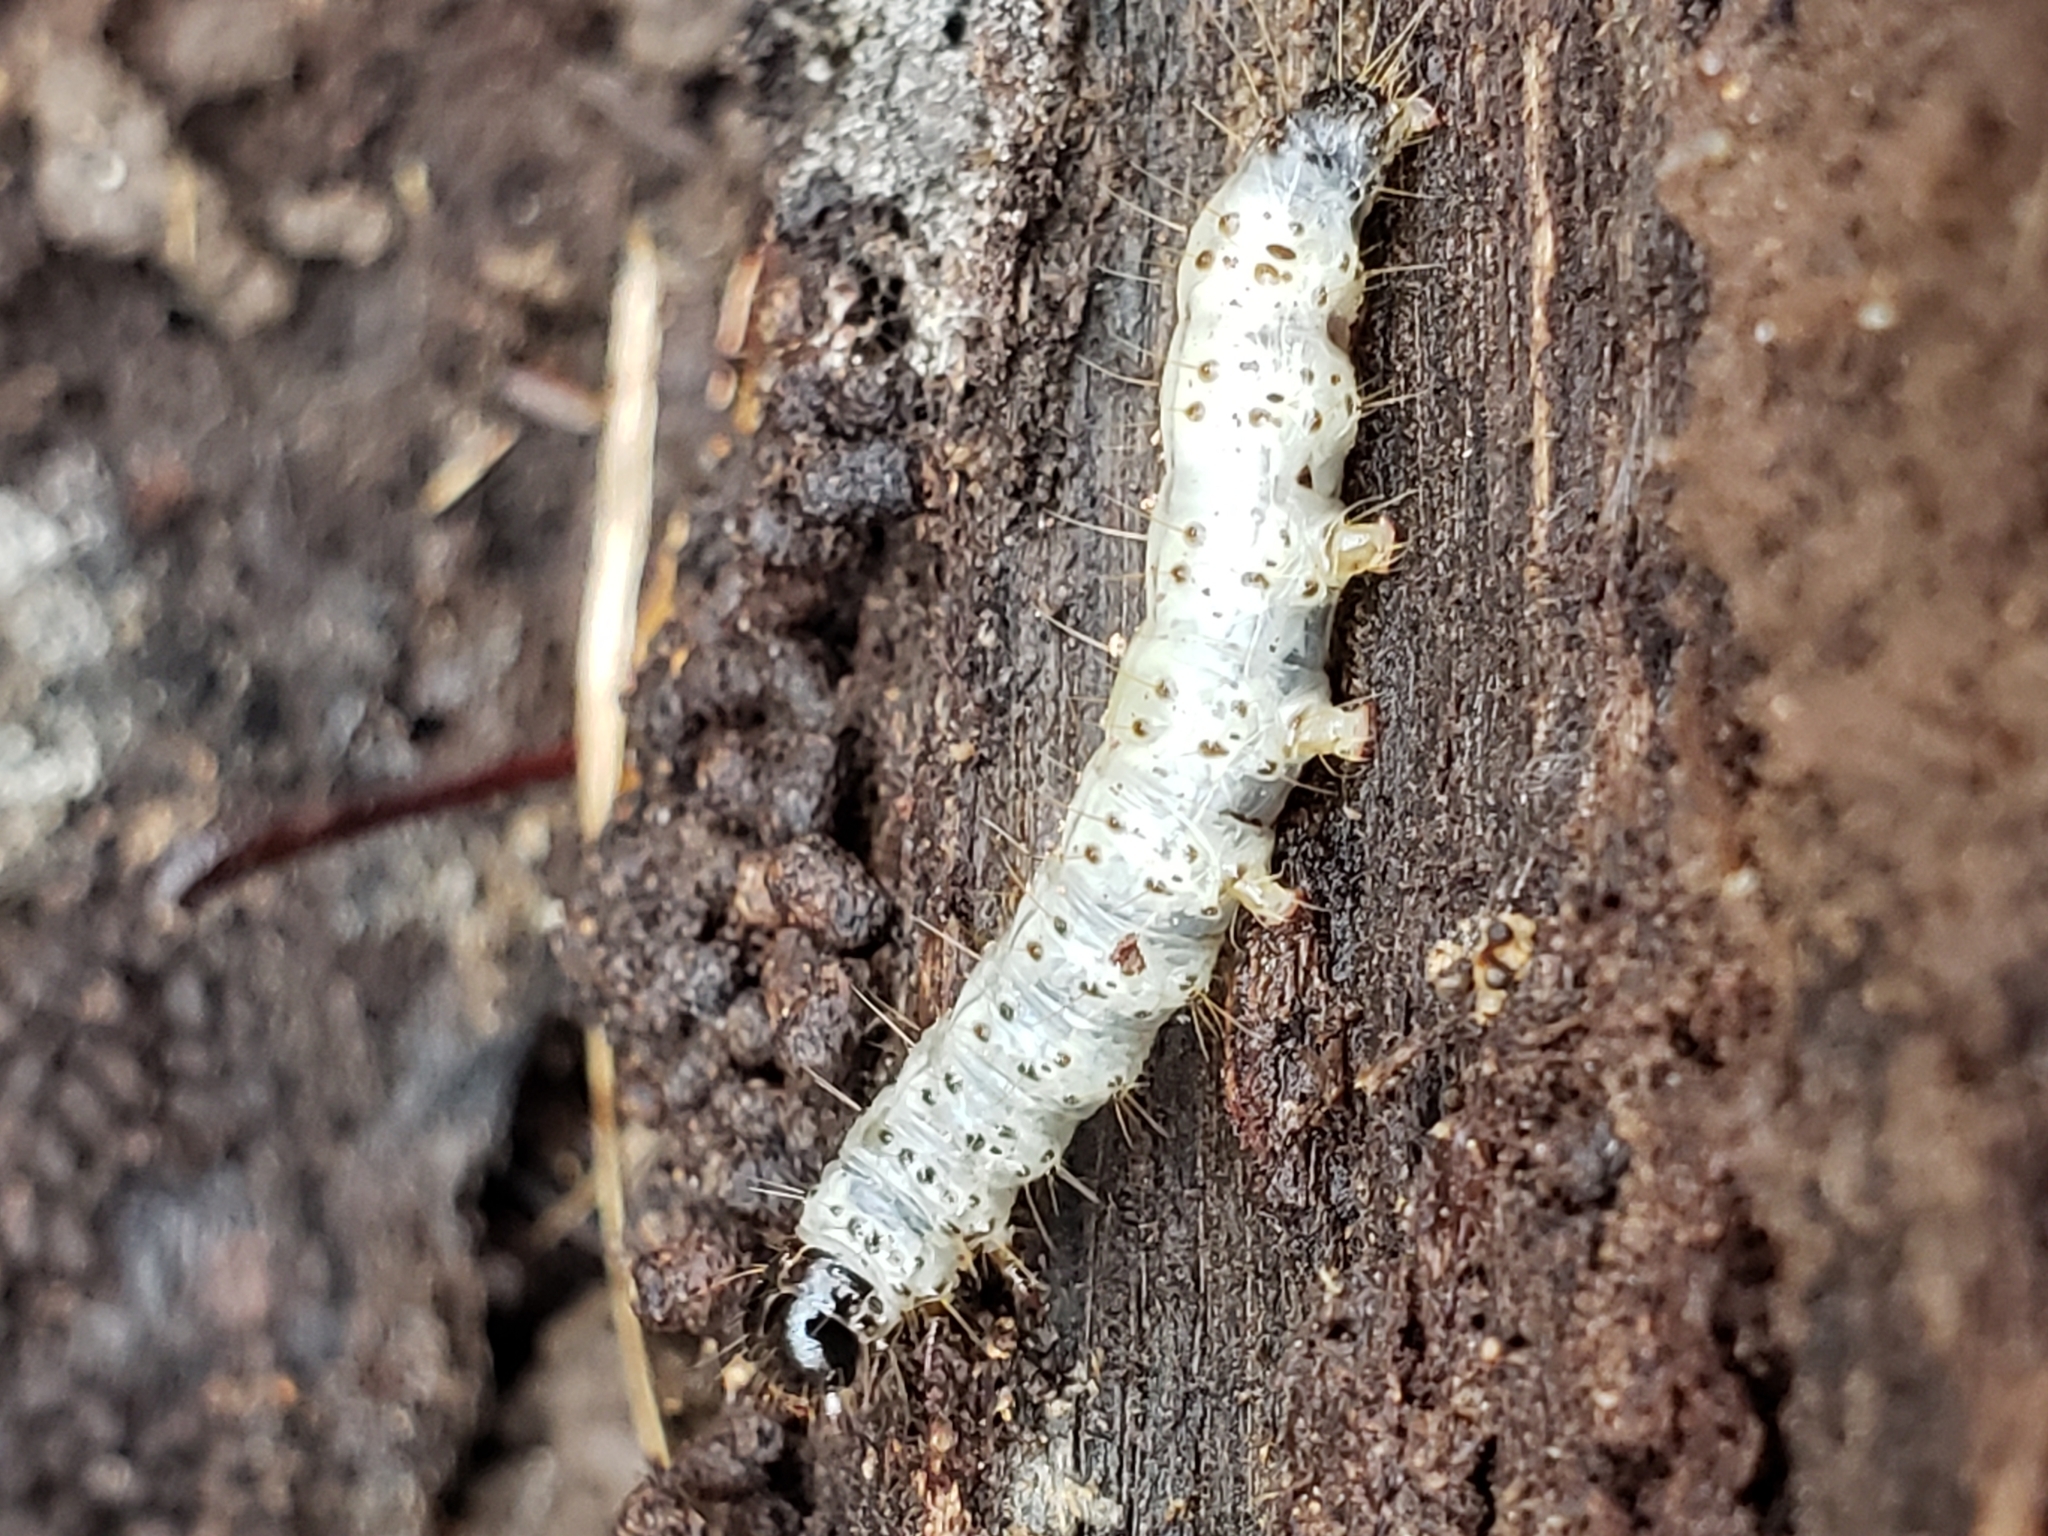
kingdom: Animalia
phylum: Arthropoda
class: Insecta
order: Lepidoptera
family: Erebidae
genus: Scolecocampa
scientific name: Scolecocampa liburna
